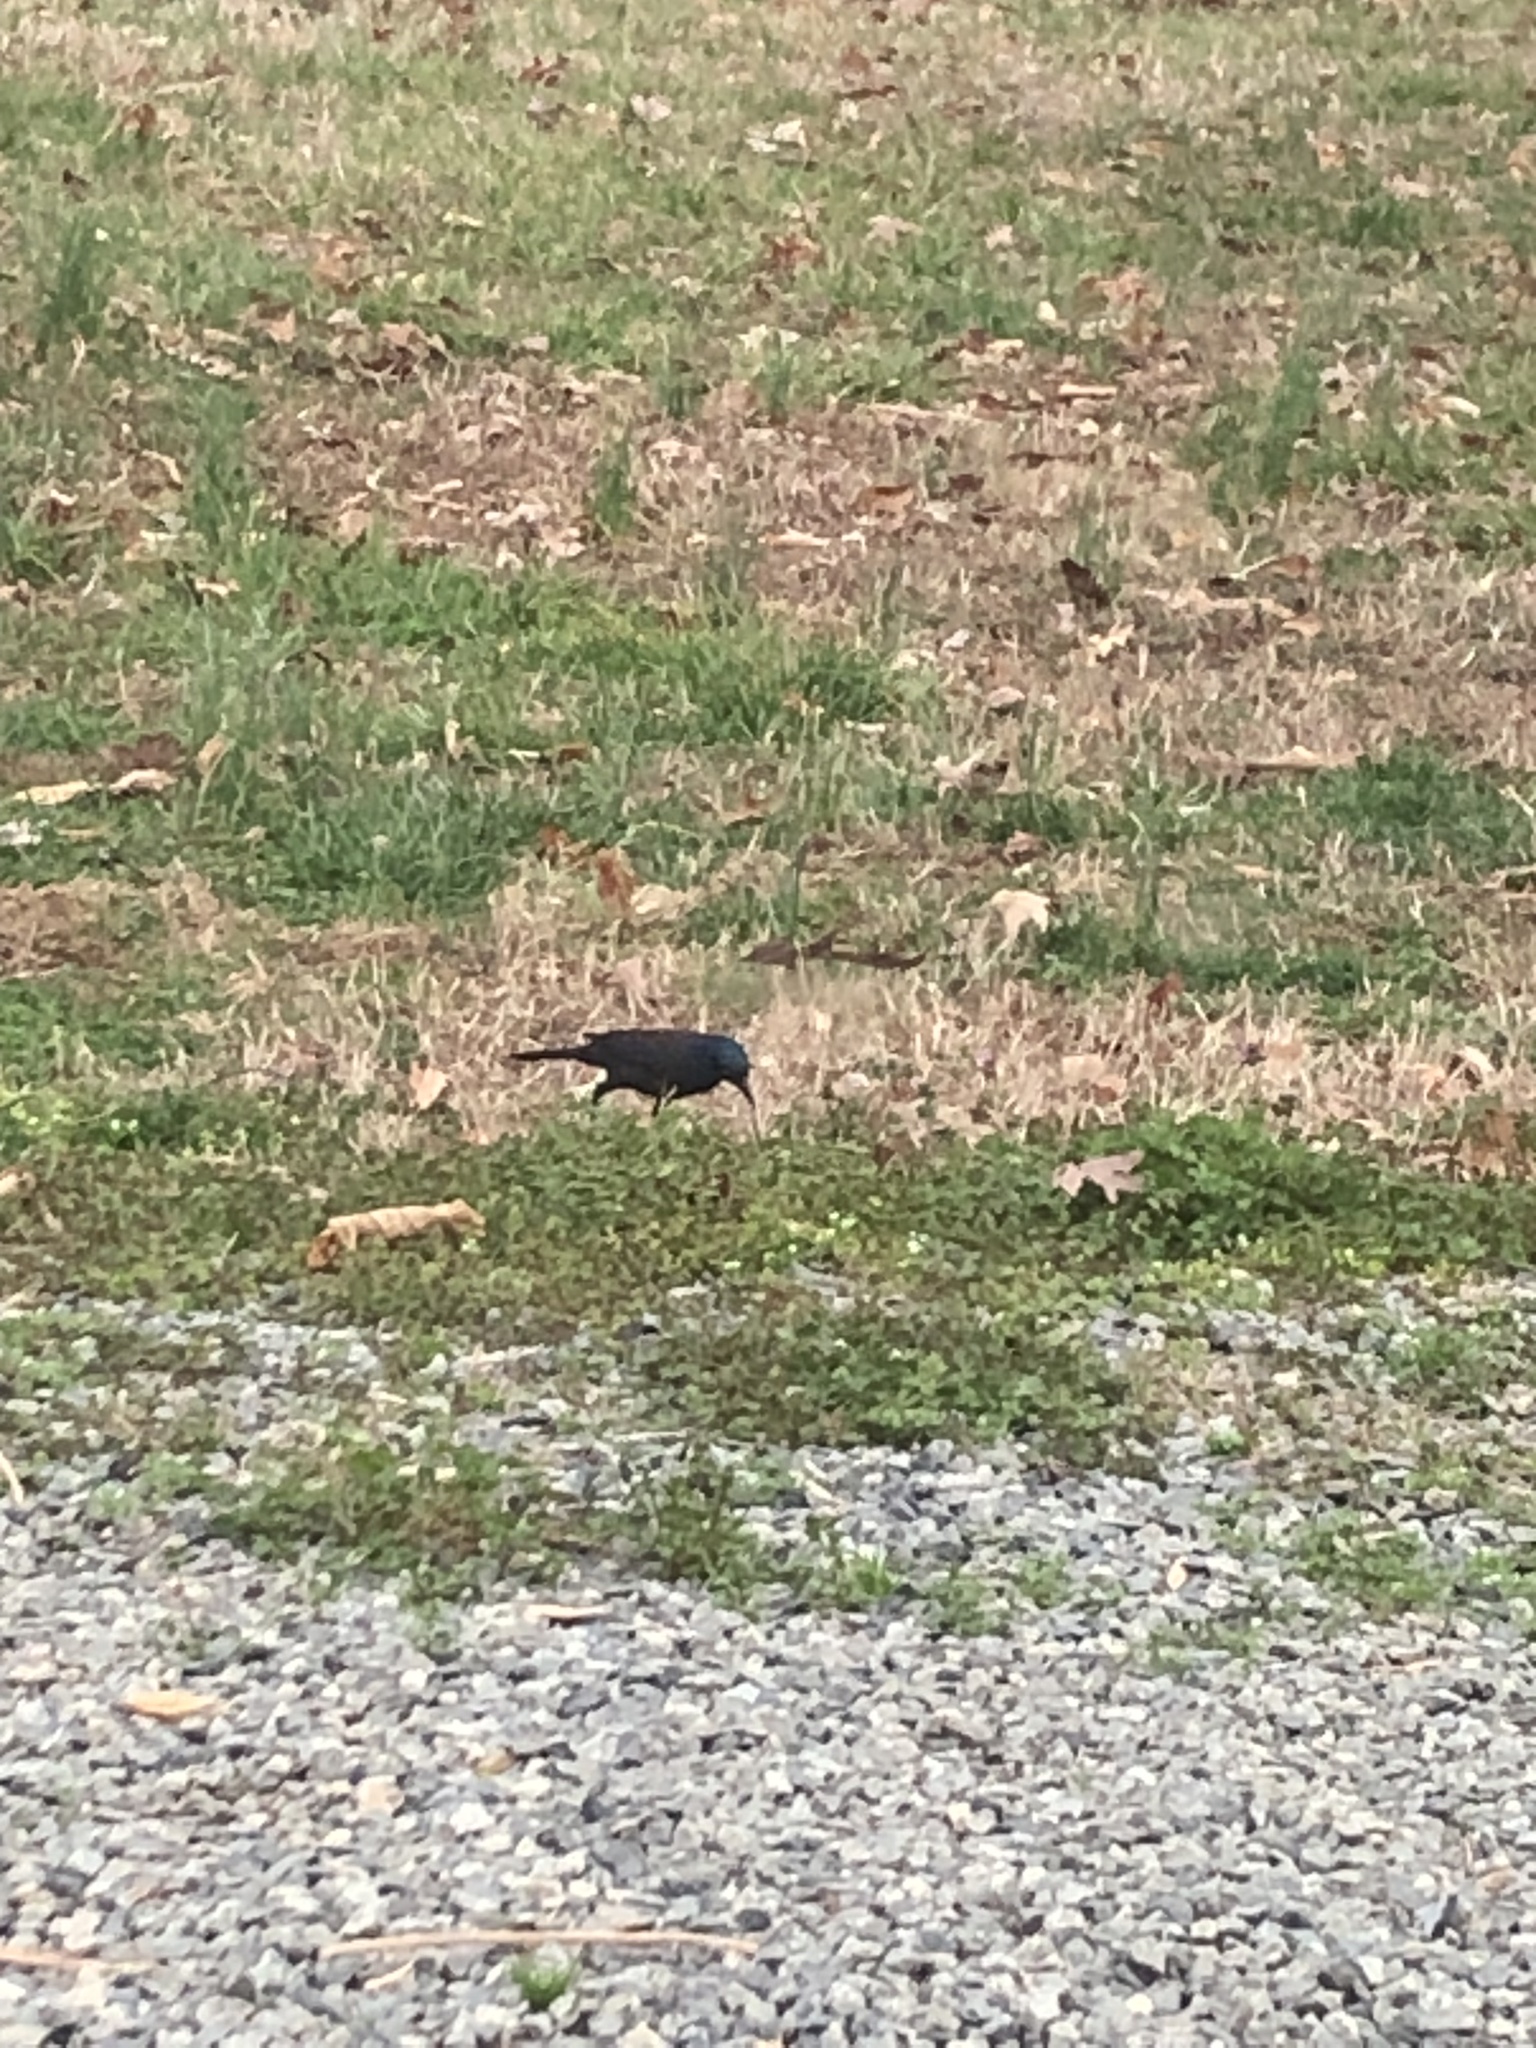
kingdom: Animalia
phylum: Chordata
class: Aves
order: Passeriformes
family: Icteridae
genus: Quiscalus
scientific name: Quiscalus quiscula
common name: Common grackle
